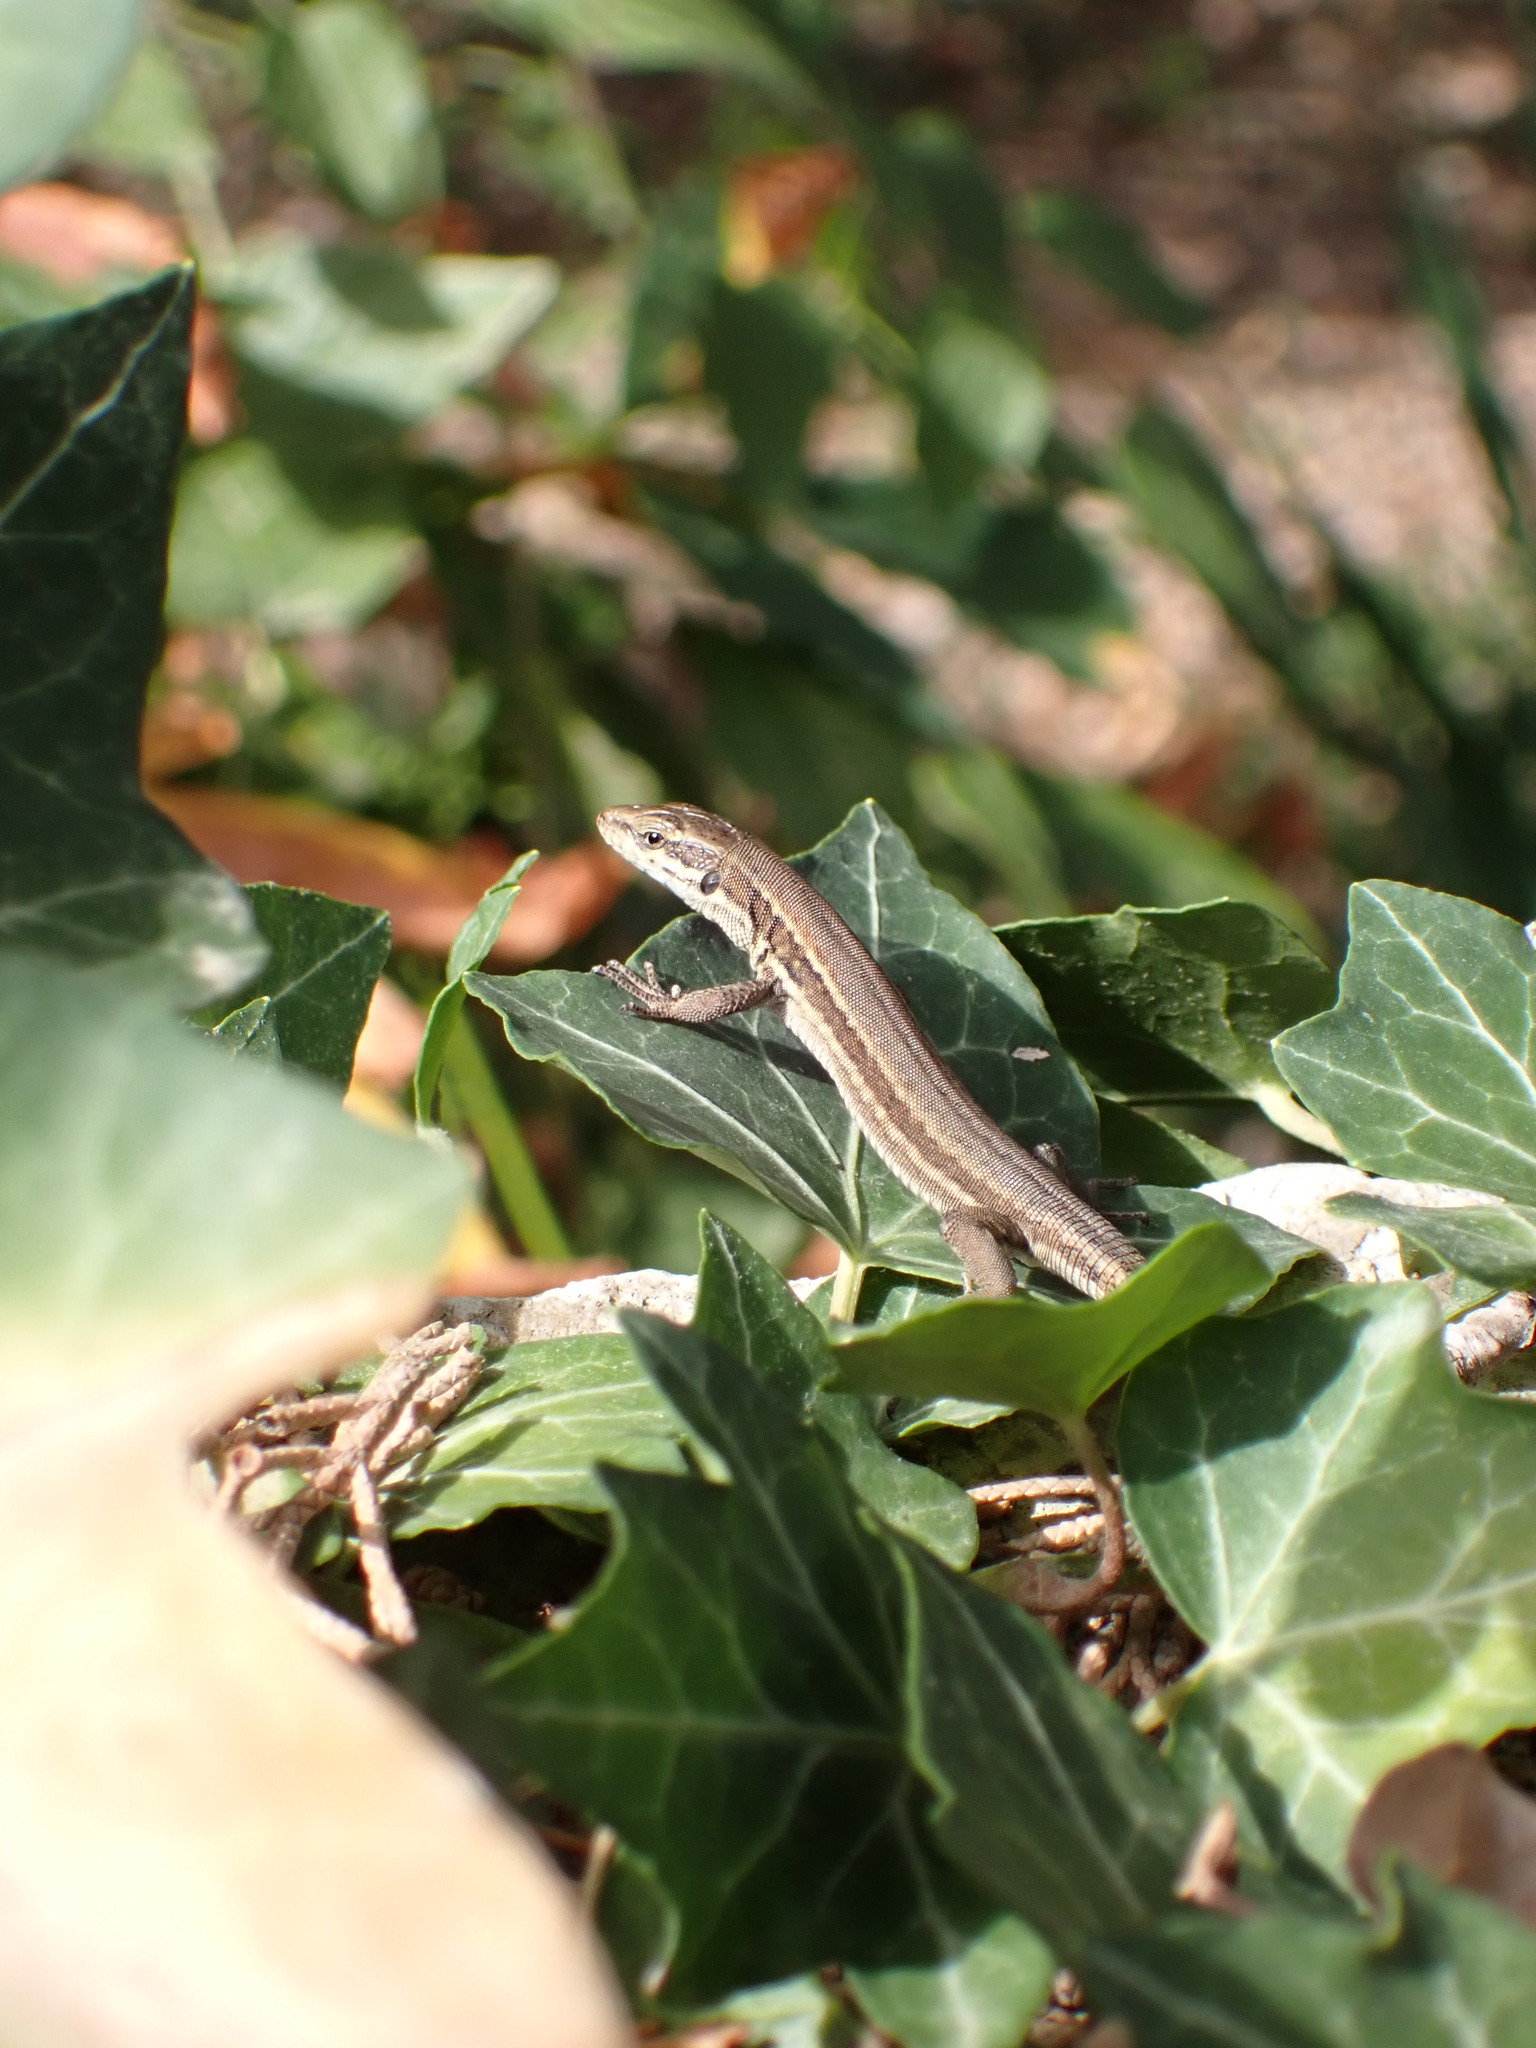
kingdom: Animalia
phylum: Chordata
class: Squamata
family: Lacertidae
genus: Podarcis
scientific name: Podarcis muralis
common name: Common wall lizard
